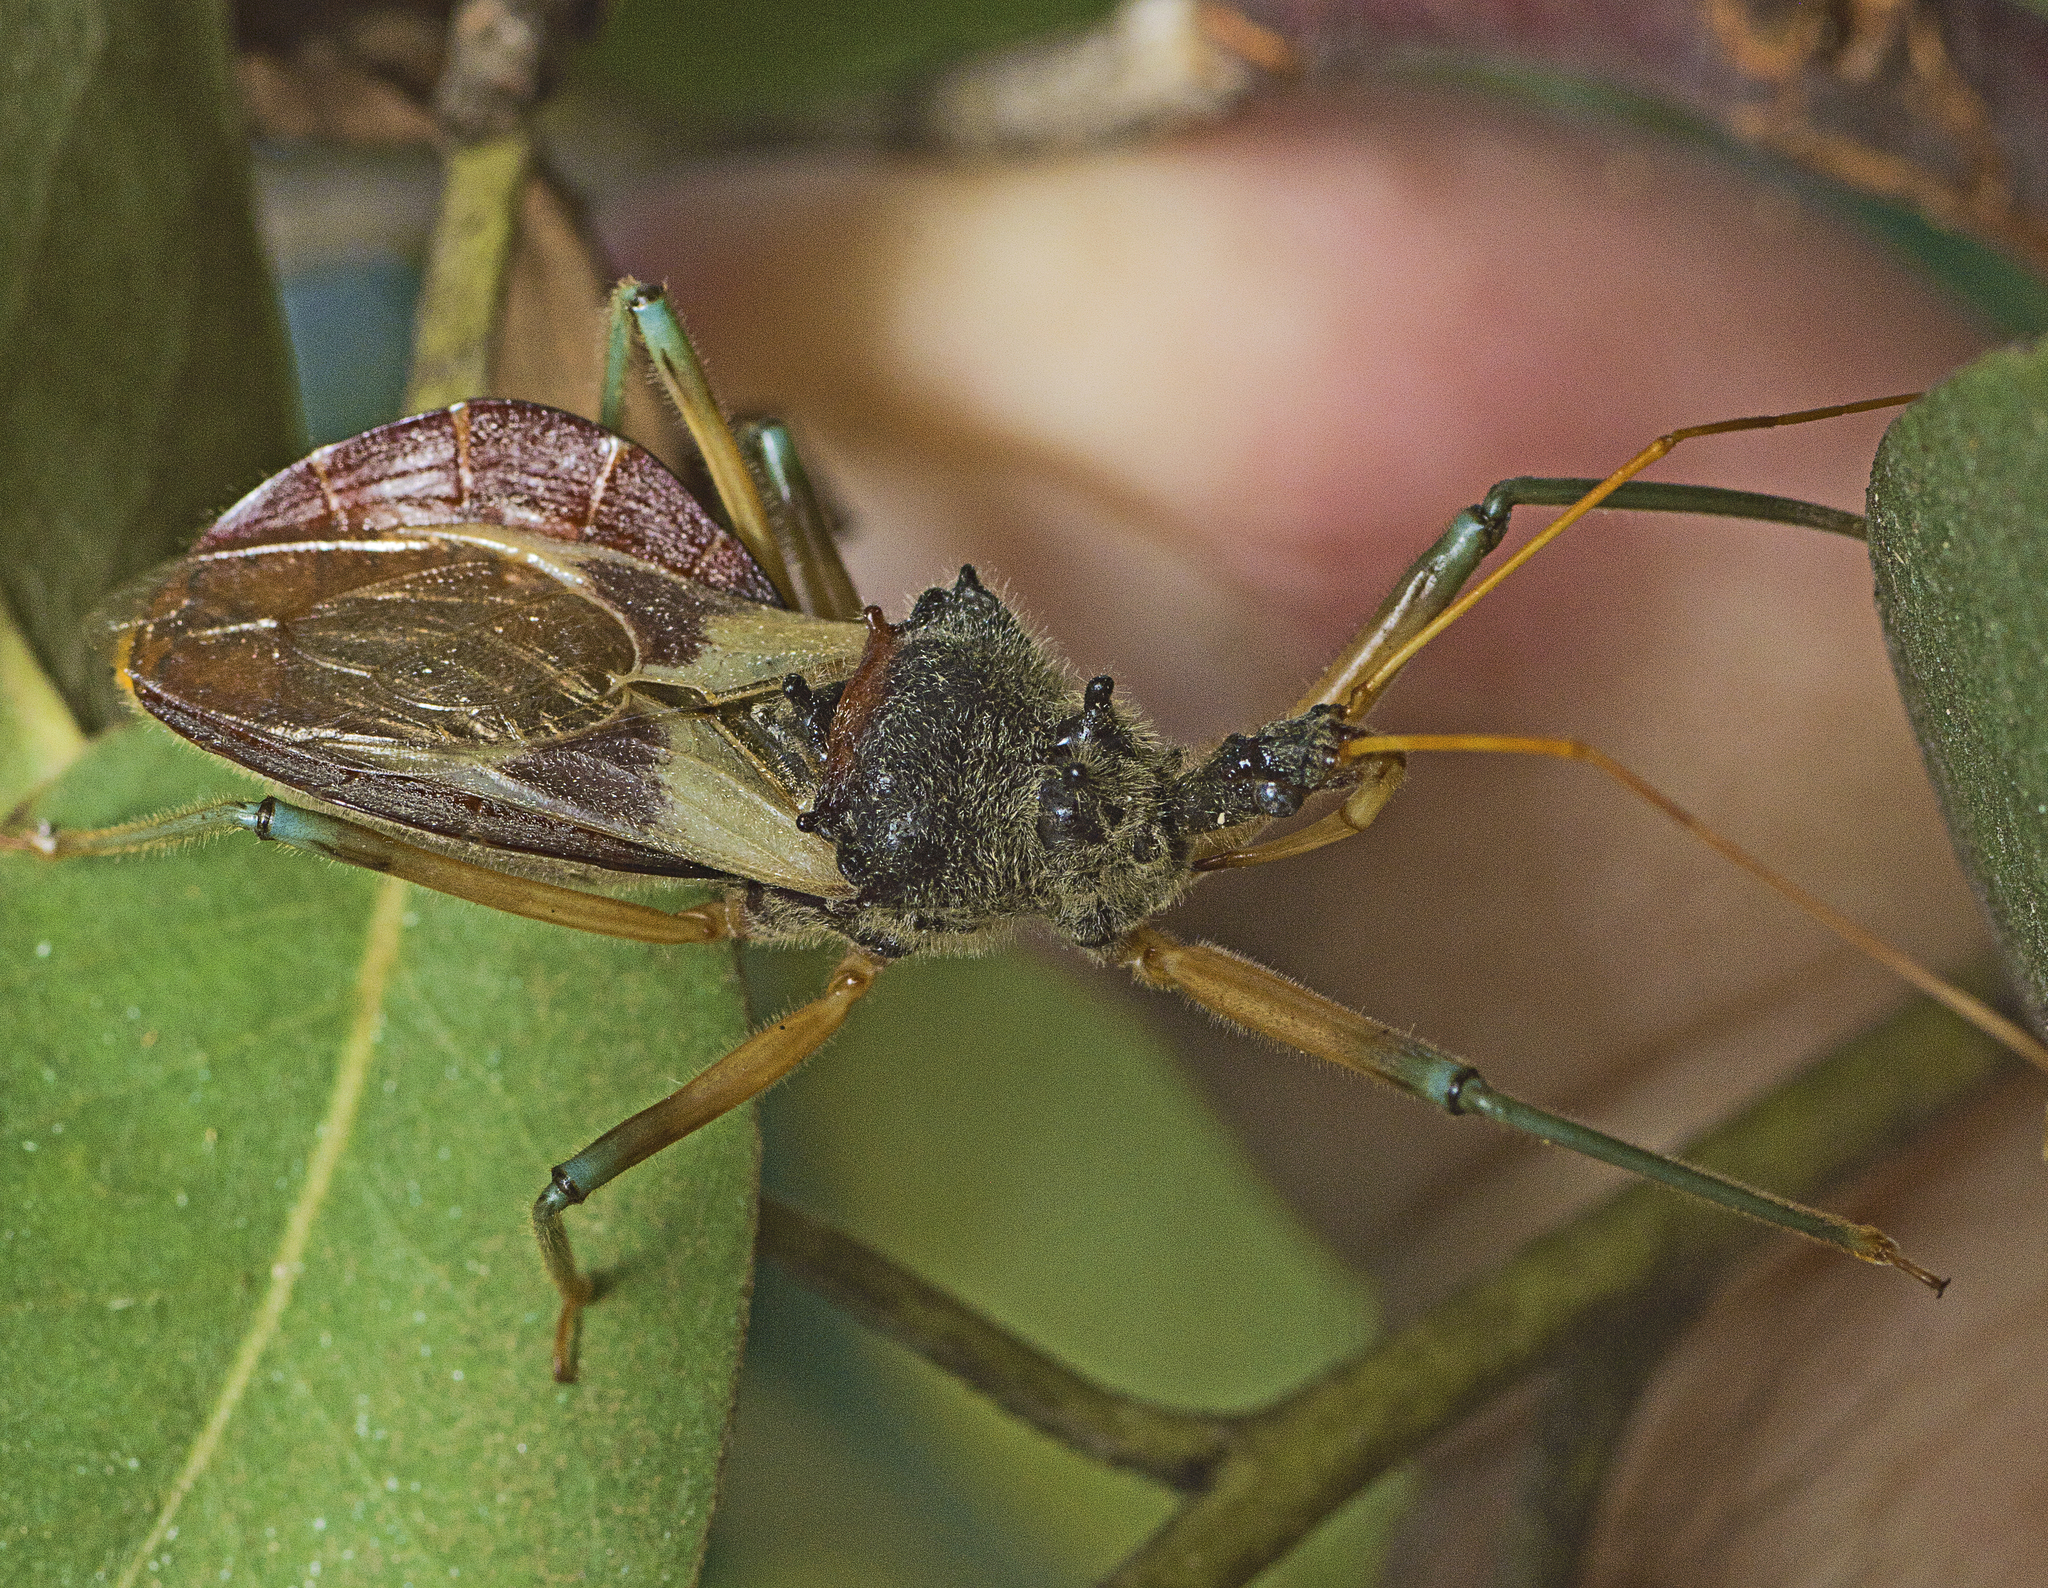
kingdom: Animalia
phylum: Arthropoda
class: Insecta
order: Hemiptera
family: Reduviidae
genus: Pristhesancus
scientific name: Pristhesancus plagipennis
